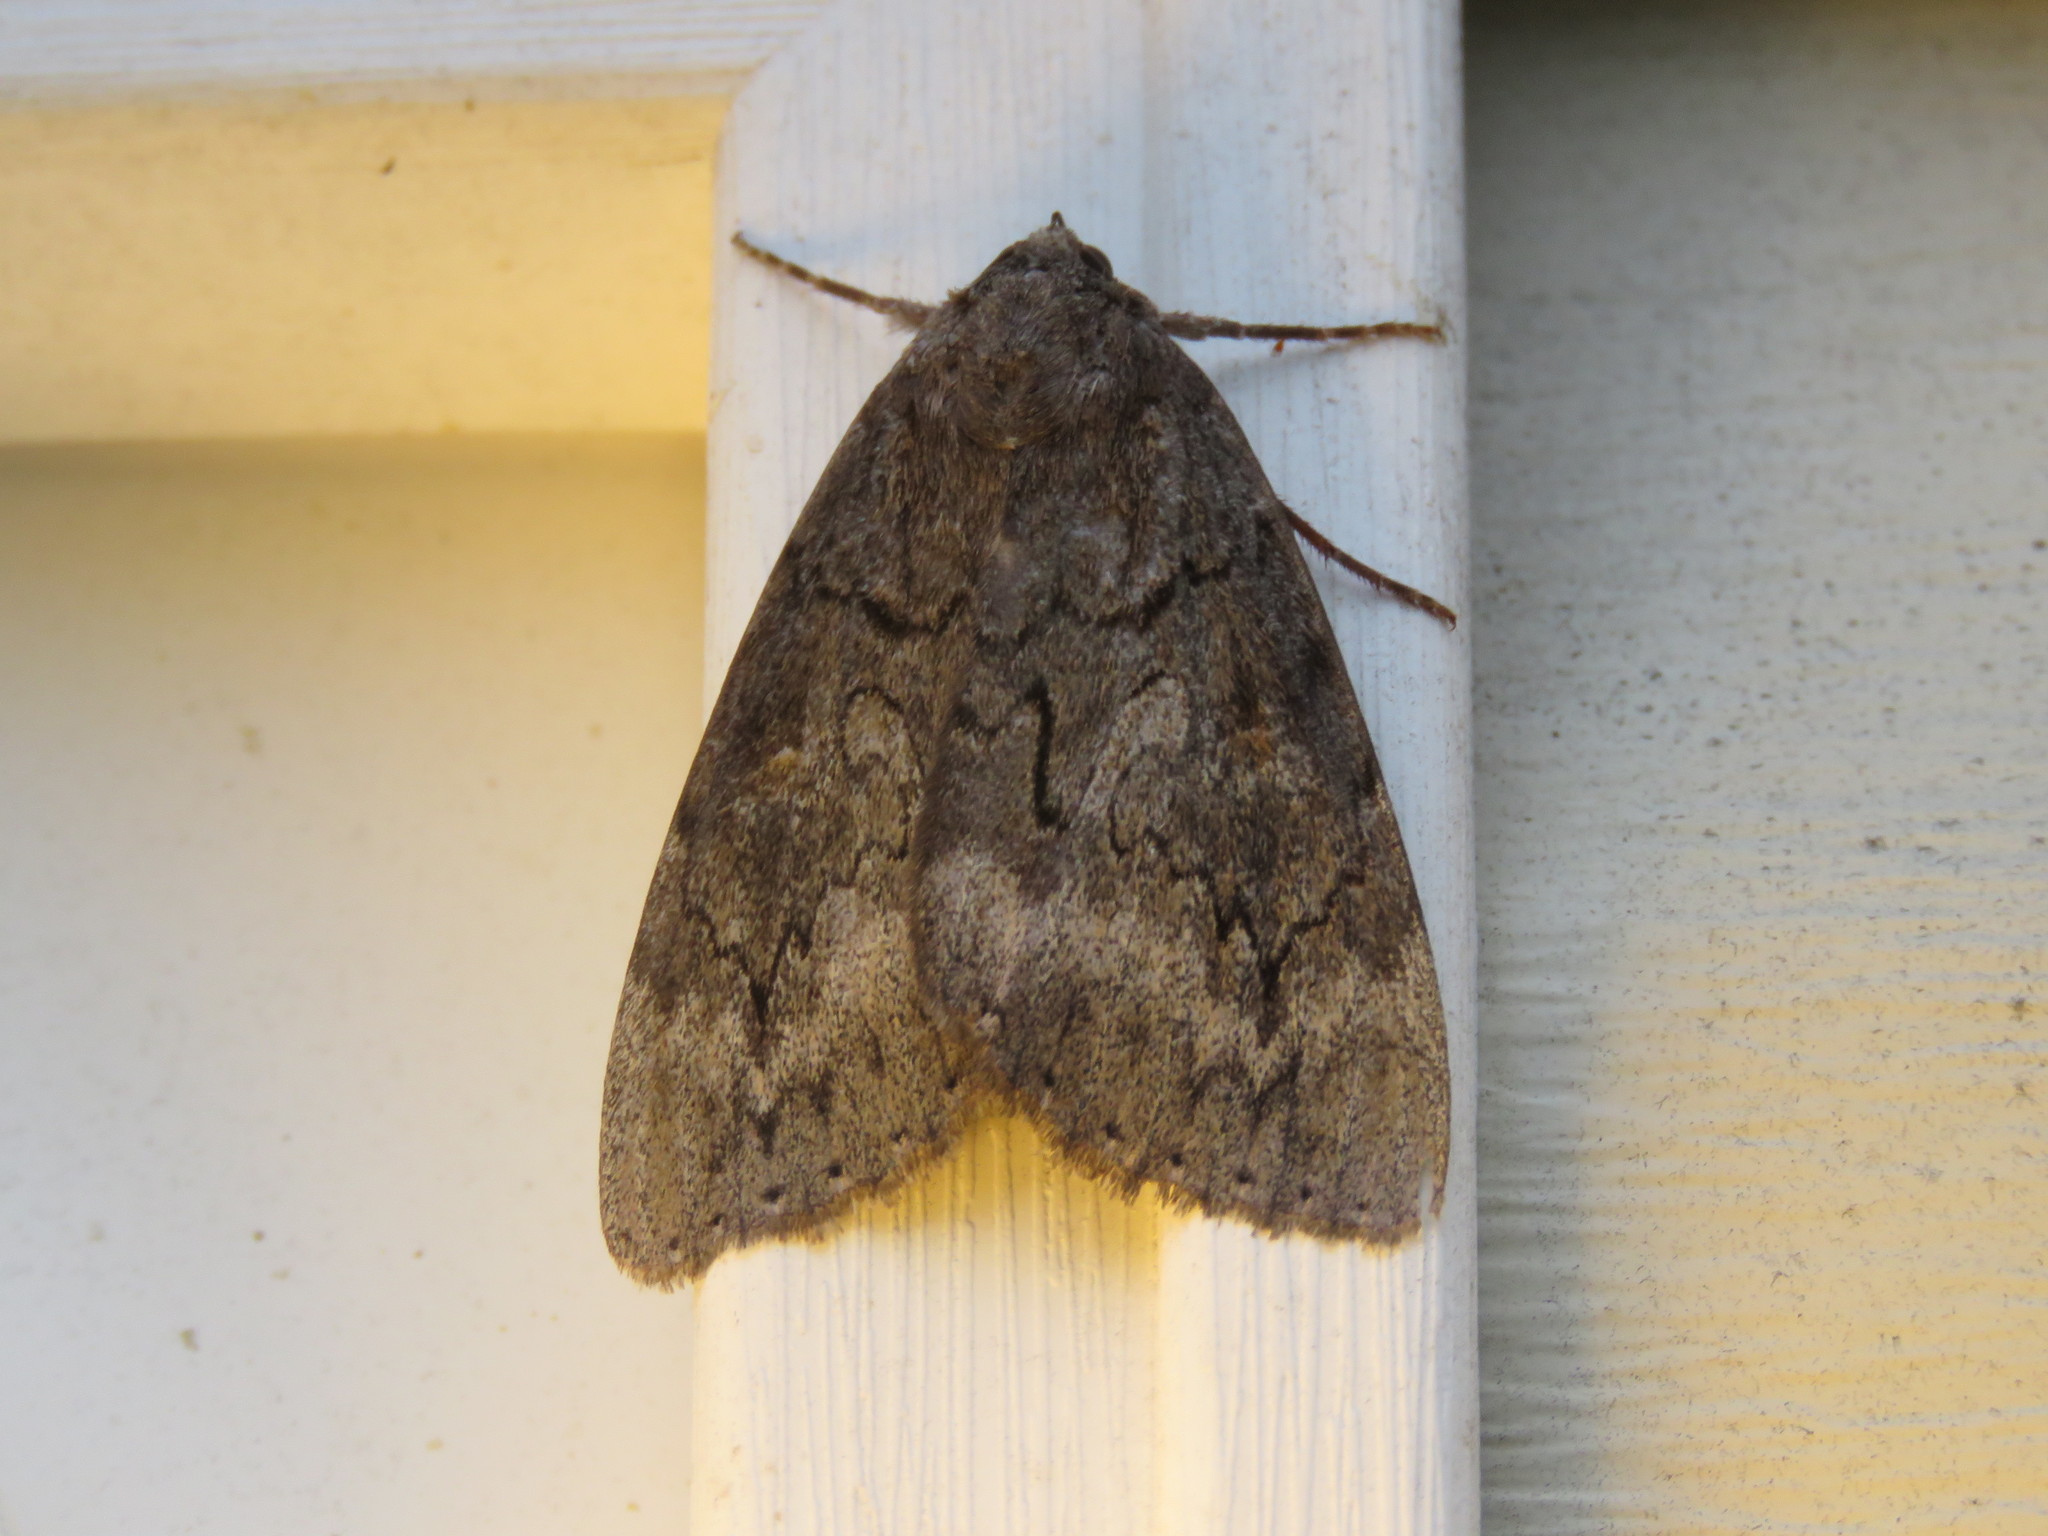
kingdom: Animalia
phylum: Arthropoda
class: Insecta
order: Lepidoptera
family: Erebidae
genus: Catocala
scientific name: Catocala residua
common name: Residua underwing
